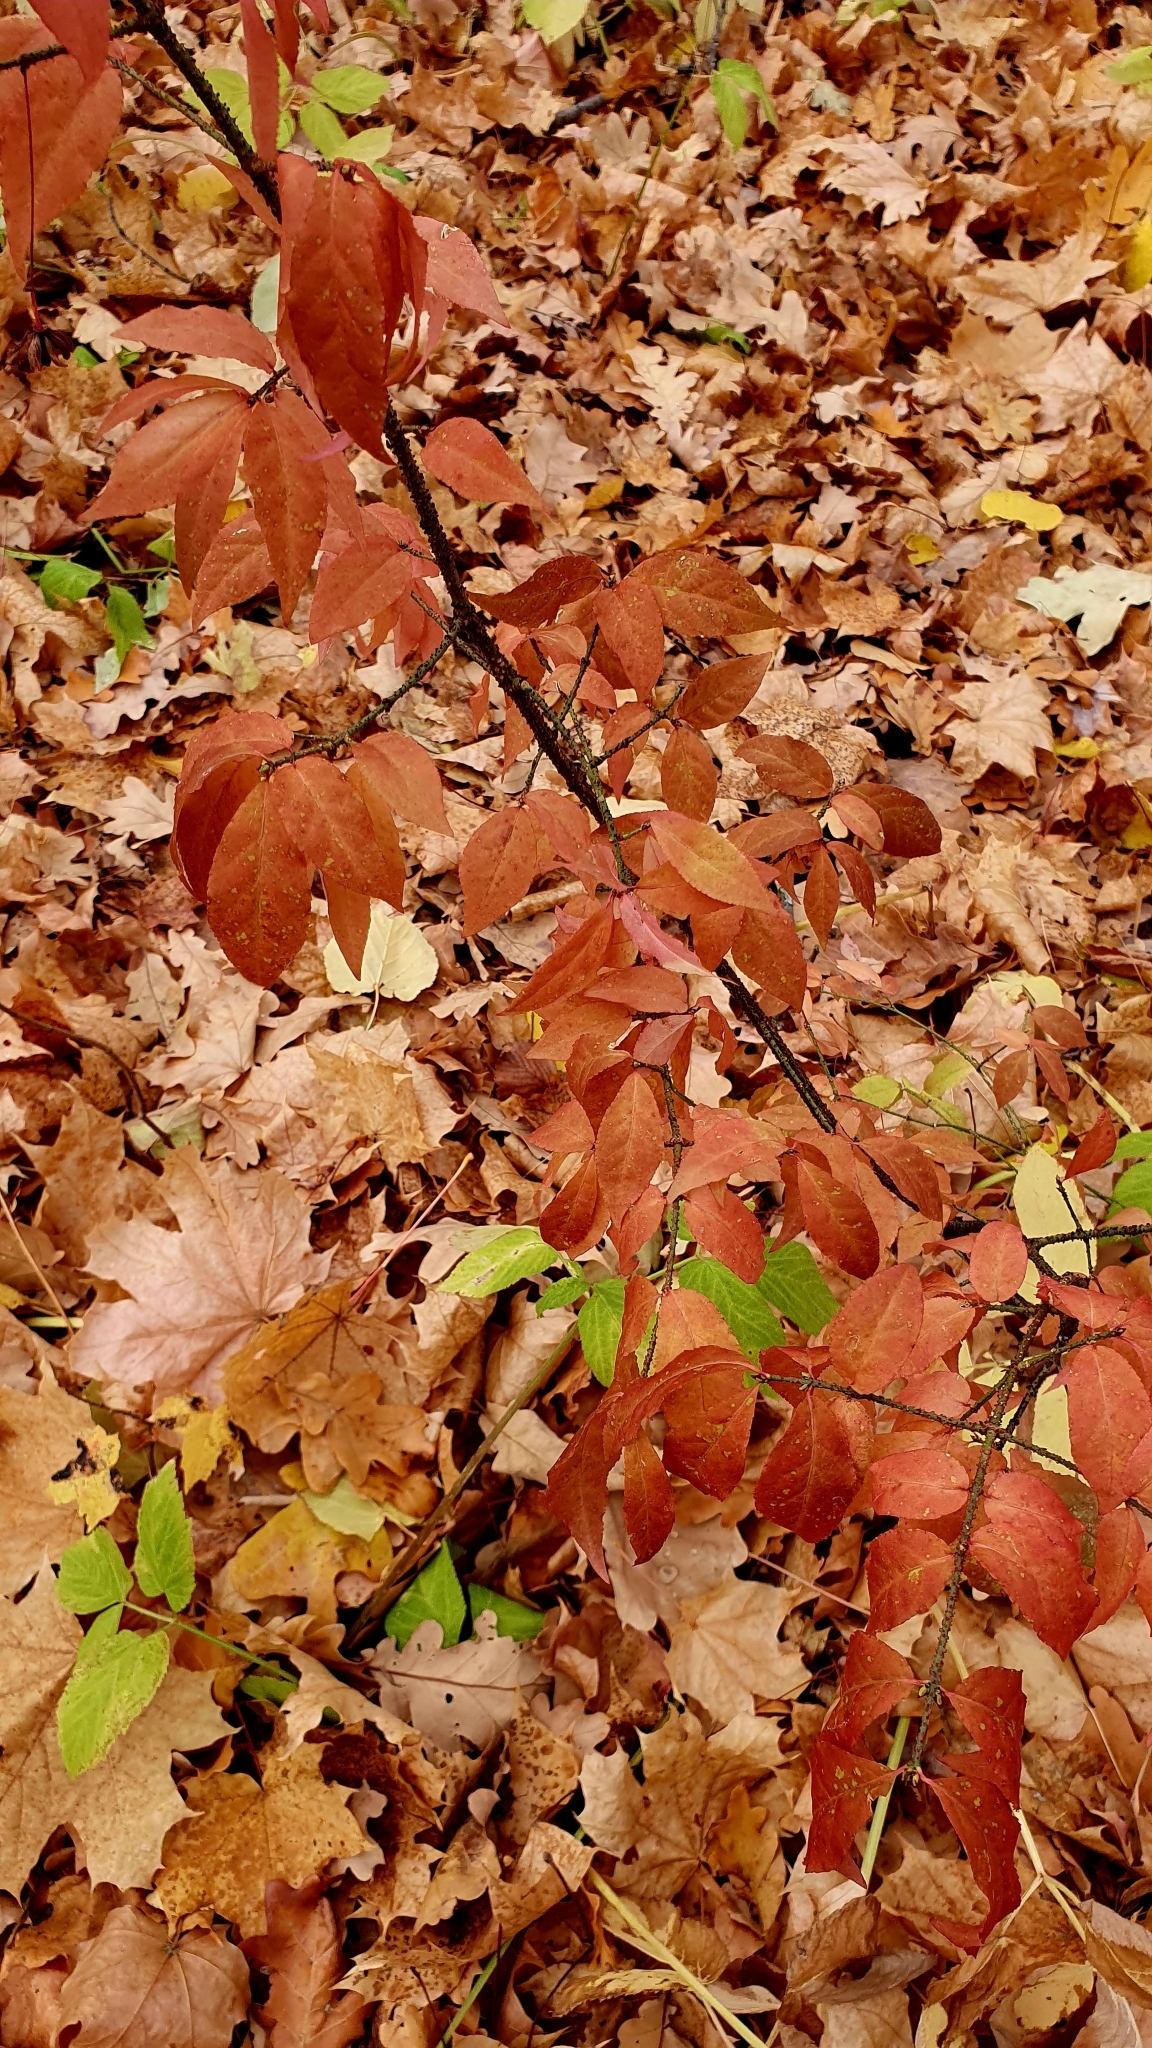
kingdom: Plantae
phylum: Tracheophyta
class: Magnoliopsida
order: Celastrales
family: Celastraceae
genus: Euonymus
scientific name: Euonymus verrucosus
